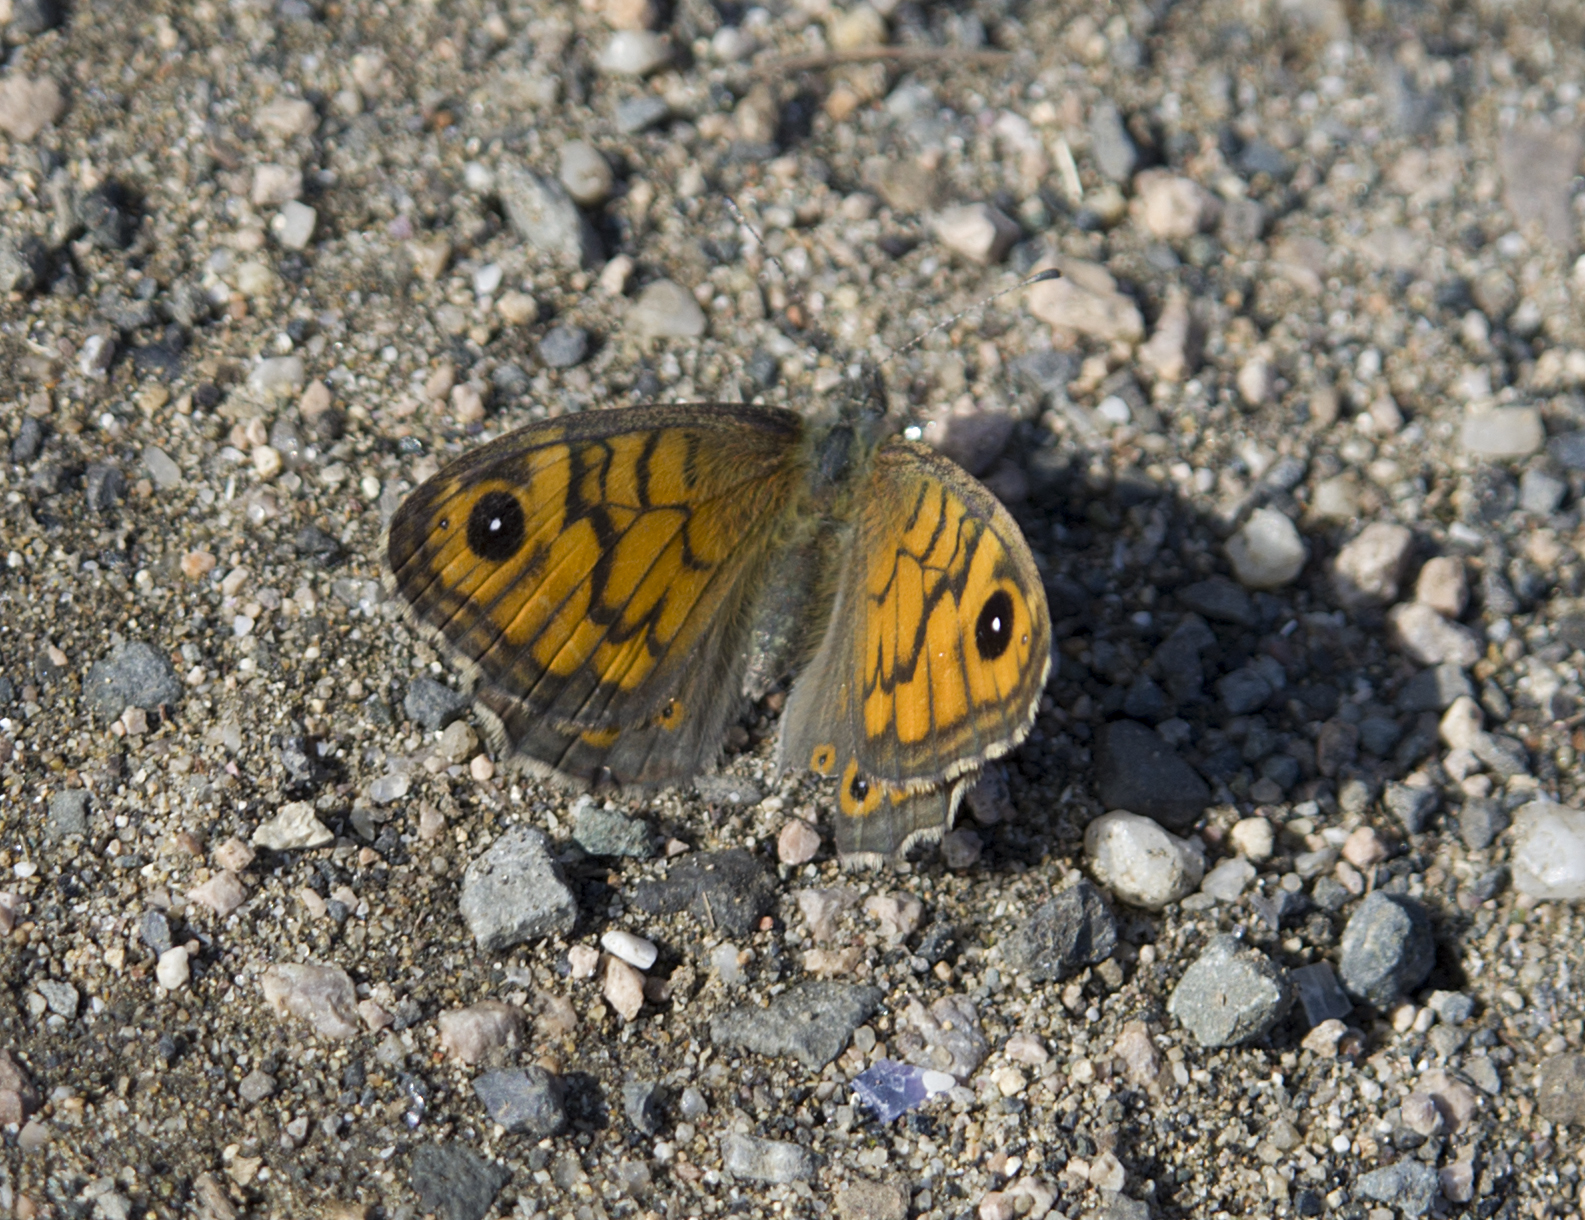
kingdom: Animalia
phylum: Arthropoda
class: Insecta
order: Lepidoptera
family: Nymphalidae
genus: Pararge
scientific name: Pararge Lasiommata megera
